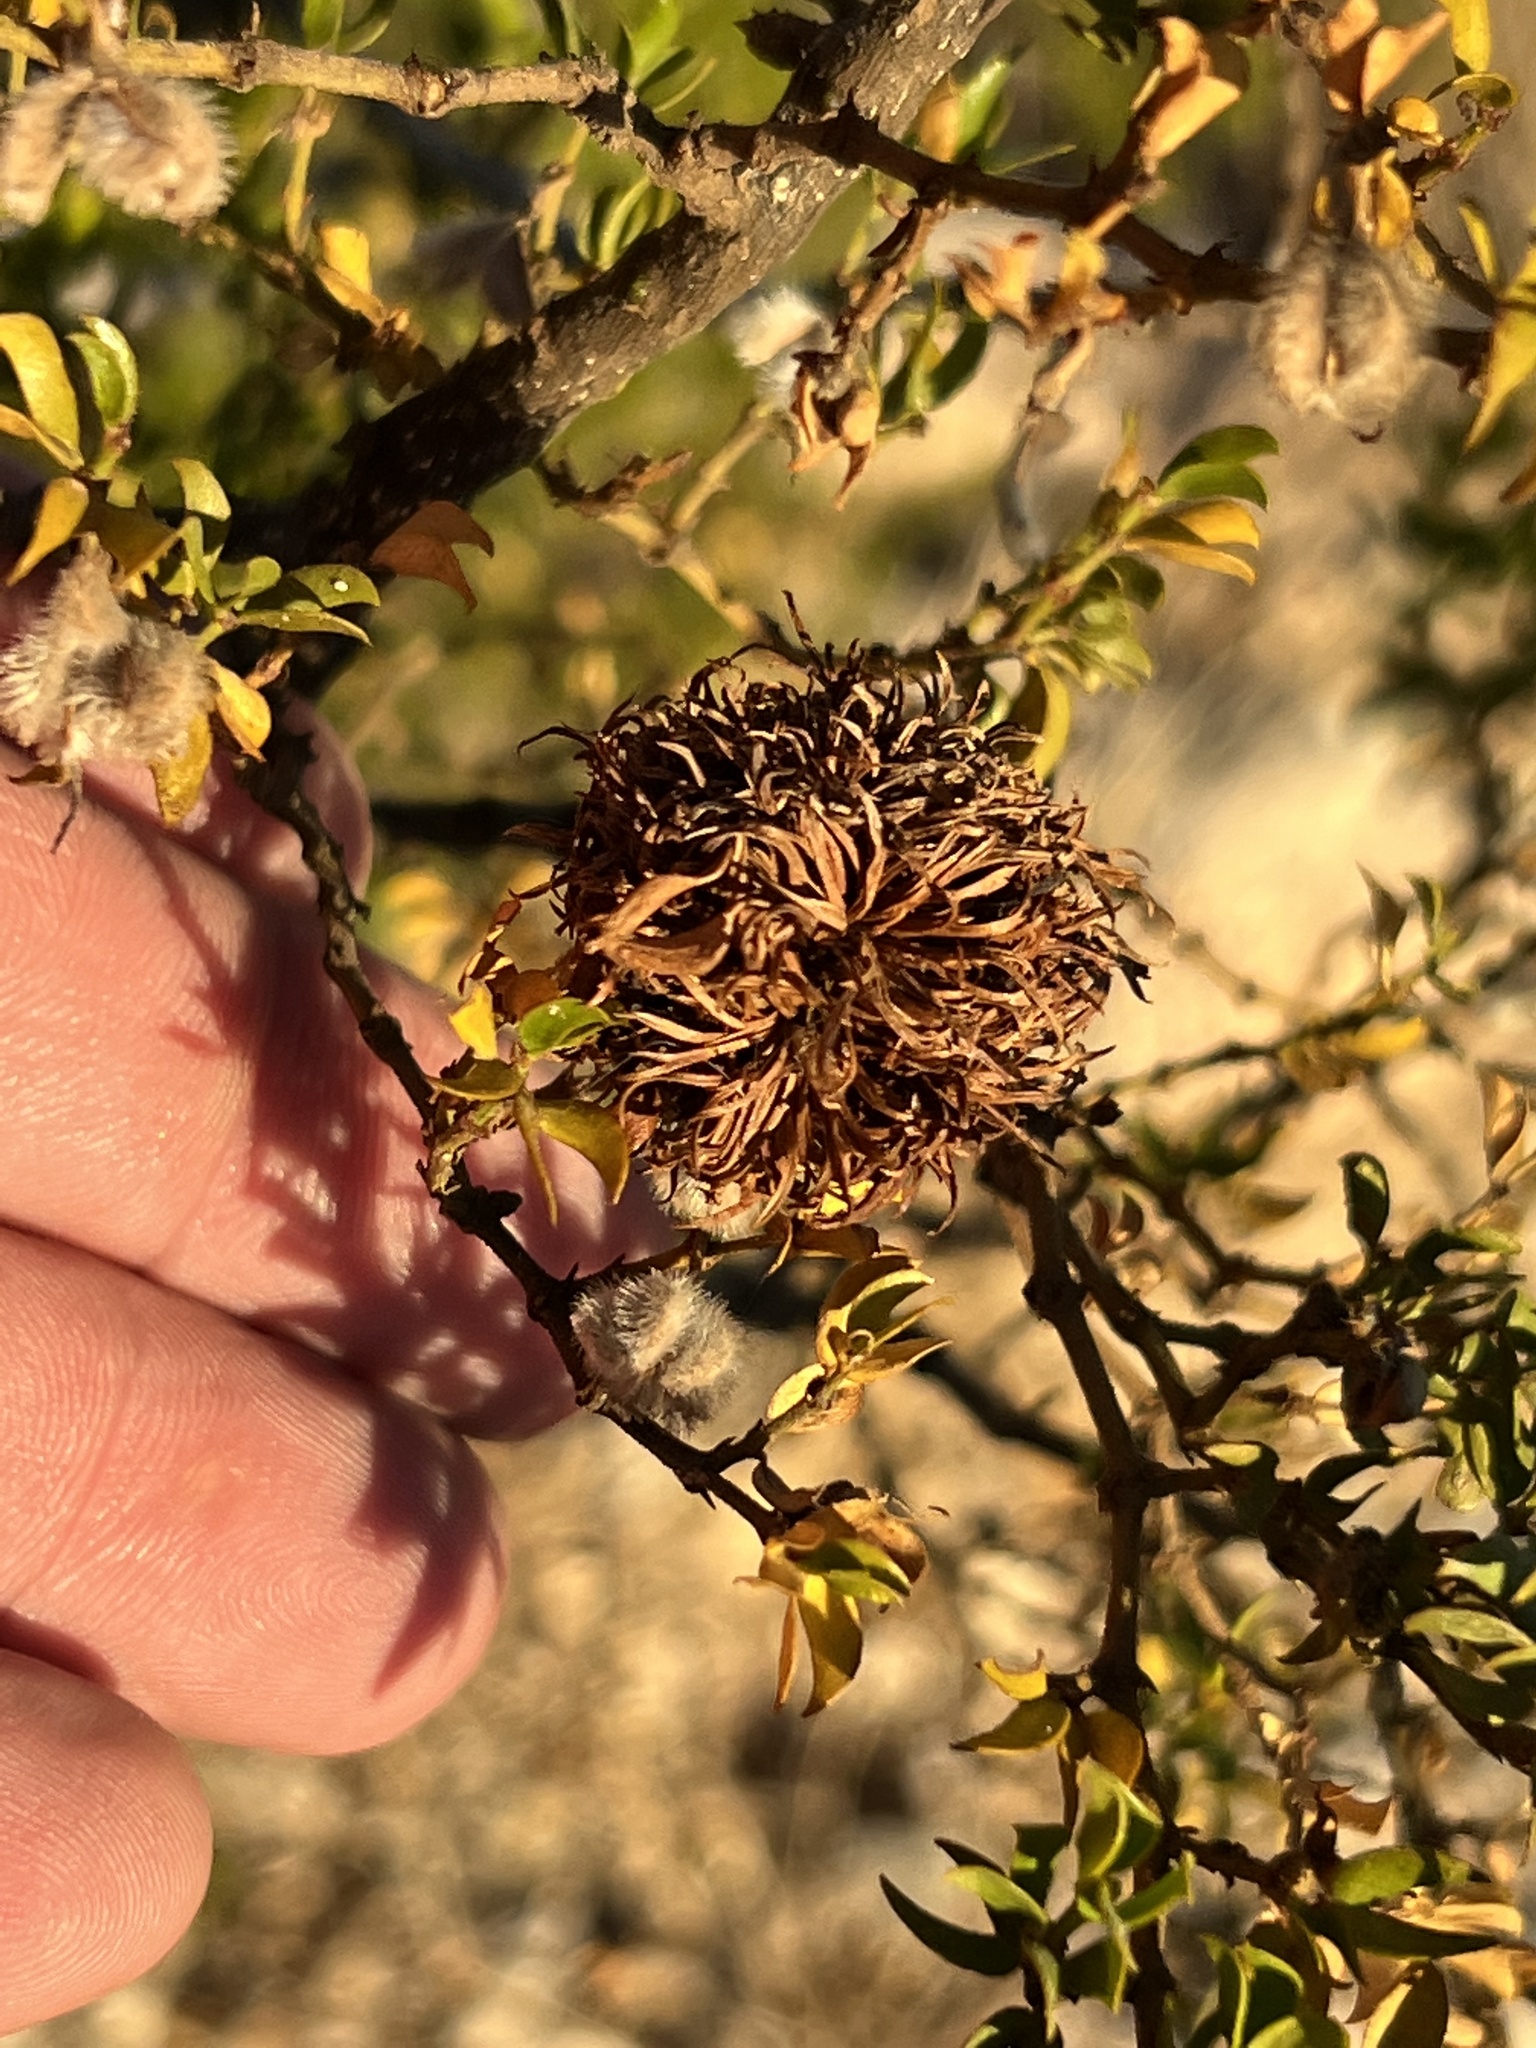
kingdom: Animalia
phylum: Arthropoda
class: Insecta
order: Diptera
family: Cecidomyiidae
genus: Asphondylia
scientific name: Asphondylia auripila
